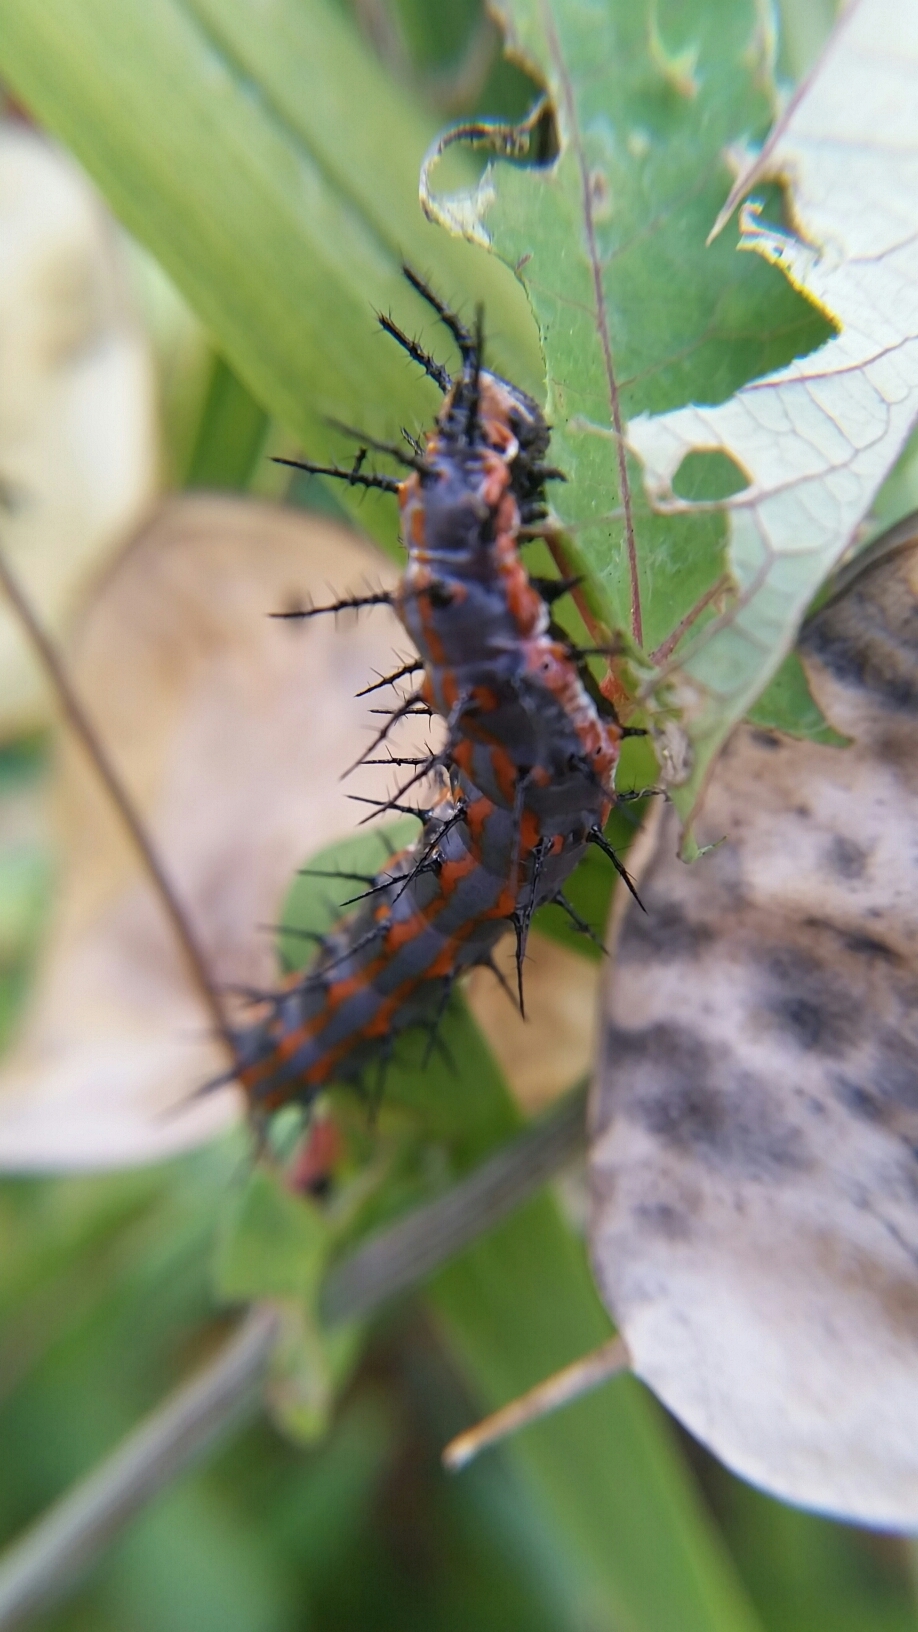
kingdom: Animalia
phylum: Arthropoda
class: Insecta
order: Lepidoptera
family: Nymphalidae
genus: Dione
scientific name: Dione vanillae
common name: Gulf fritillary
